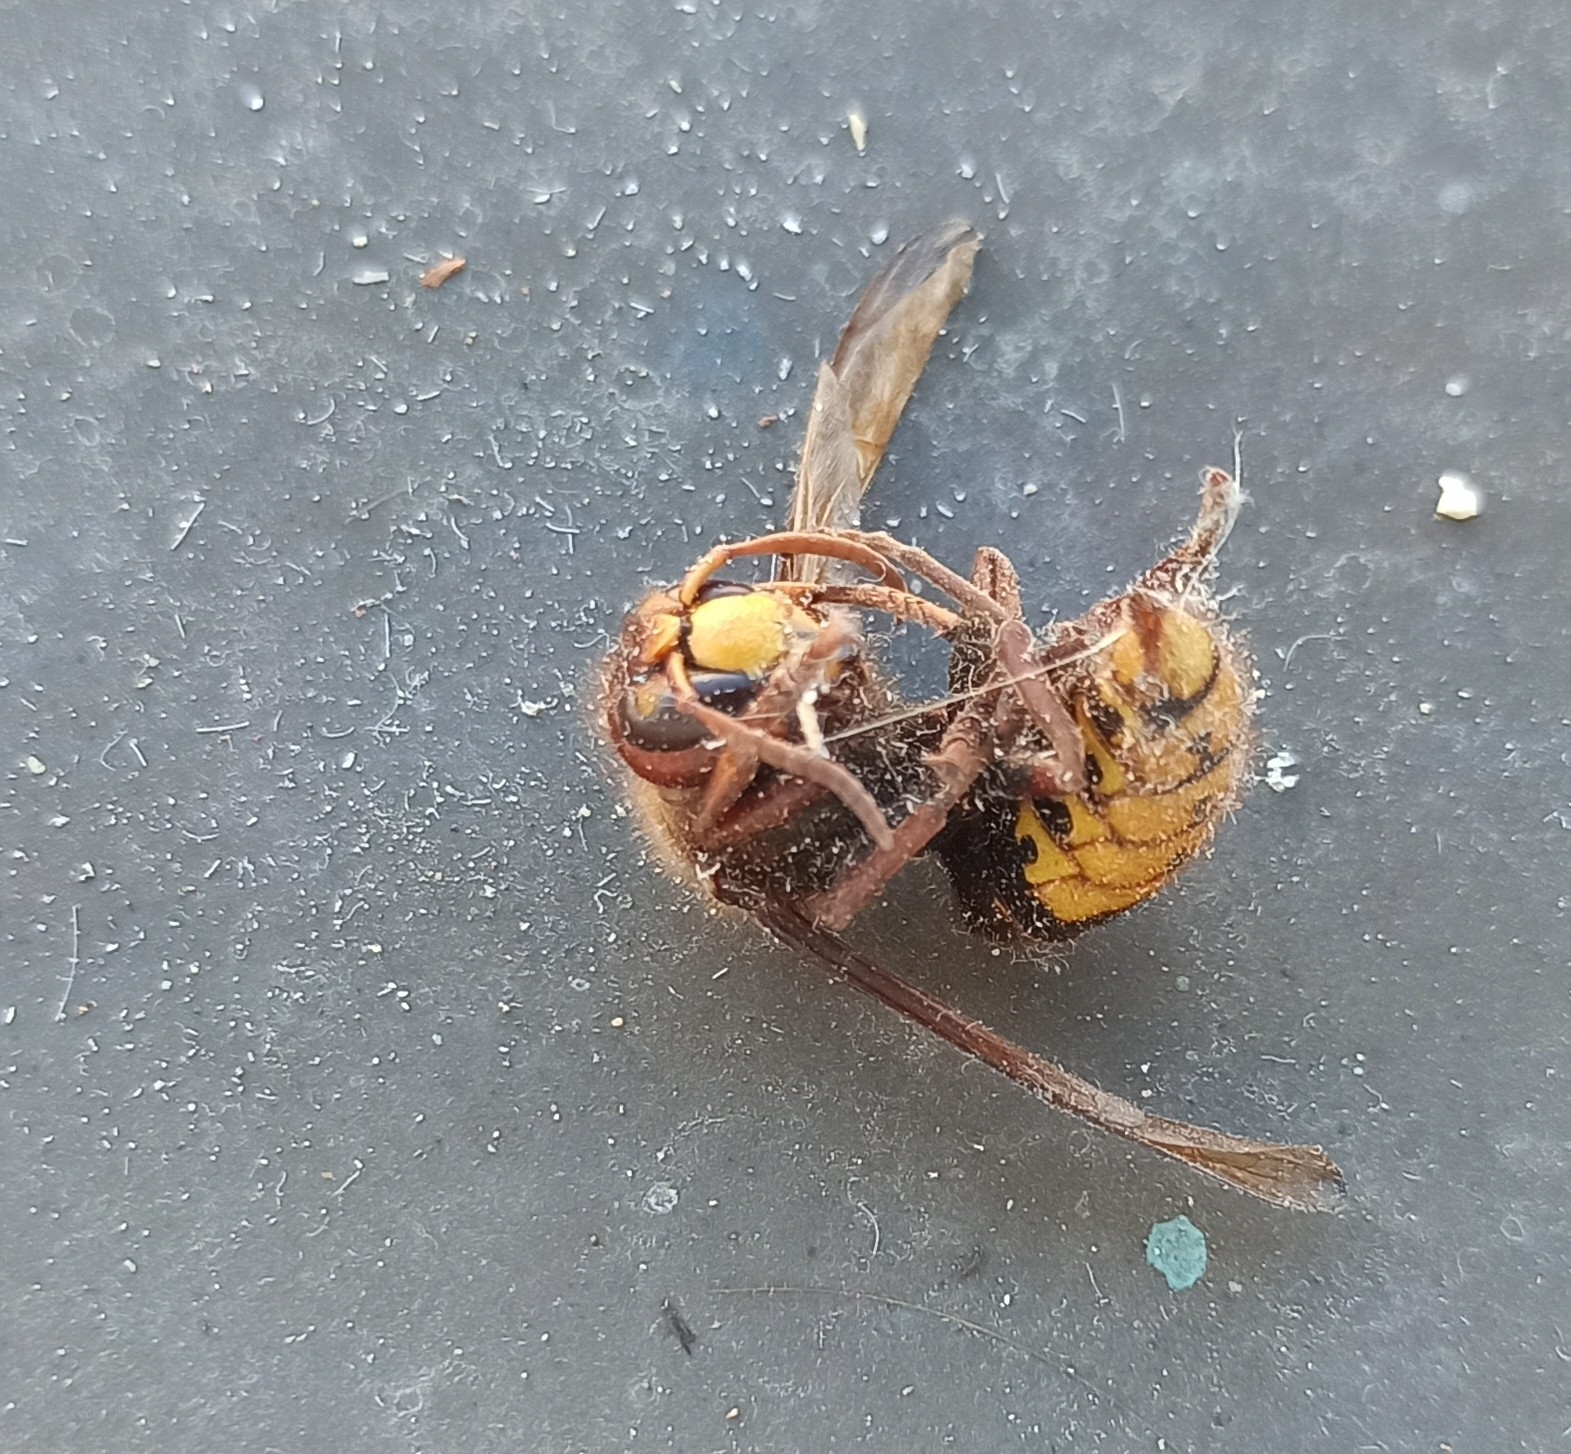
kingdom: Animalia
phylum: Arthropoda
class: Insecta
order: Hymenoptera
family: Vespidae
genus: Vespa
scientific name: Vespa crabro
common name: Hornet
